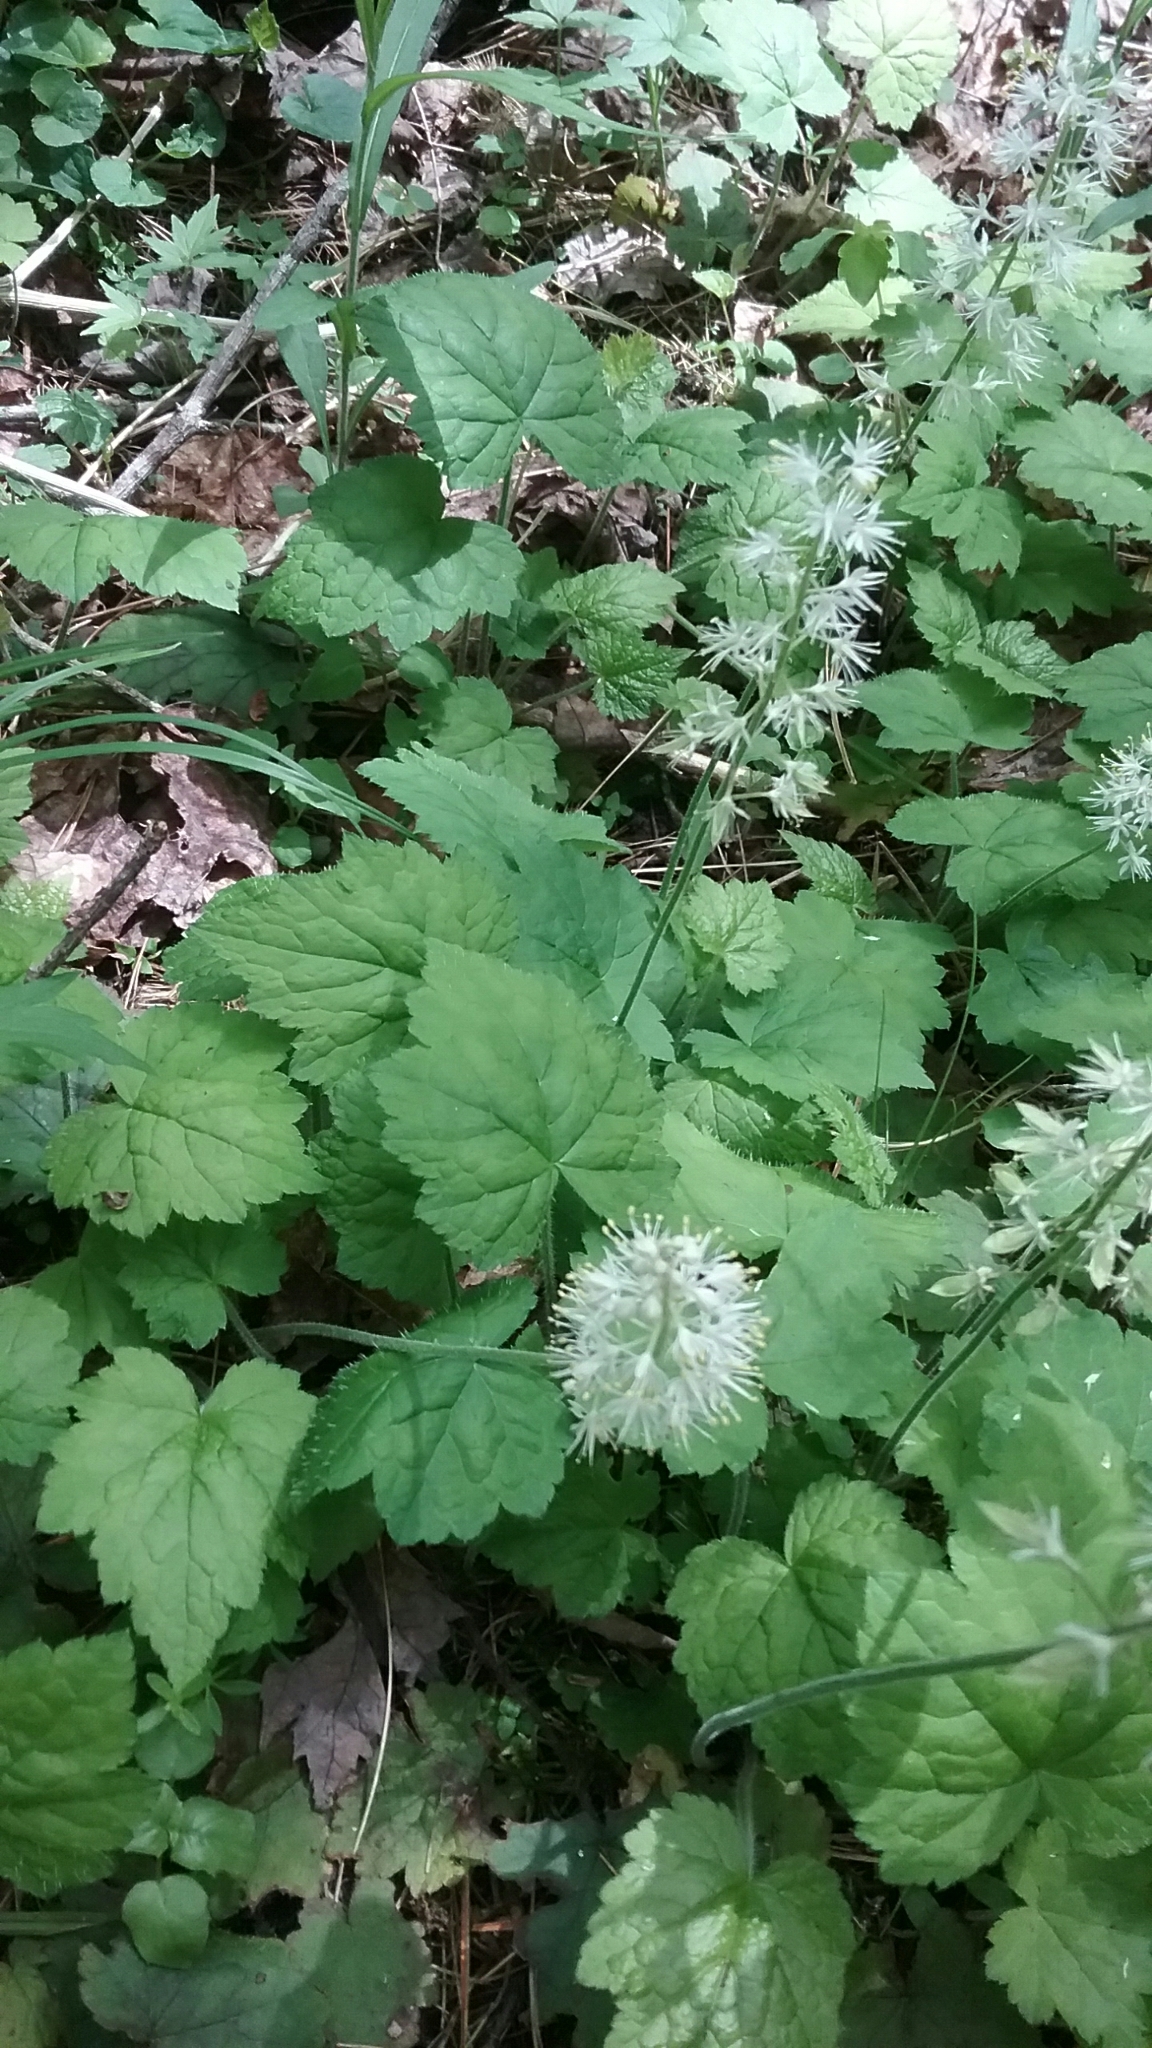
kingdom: Plantae
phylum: Tracheophyta
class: Magnoliopsida
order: Saxifragales
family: Saxifragaceae
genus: Tiarella
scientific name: Tiarella stolonifera
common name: Stoloniferous foamflower
